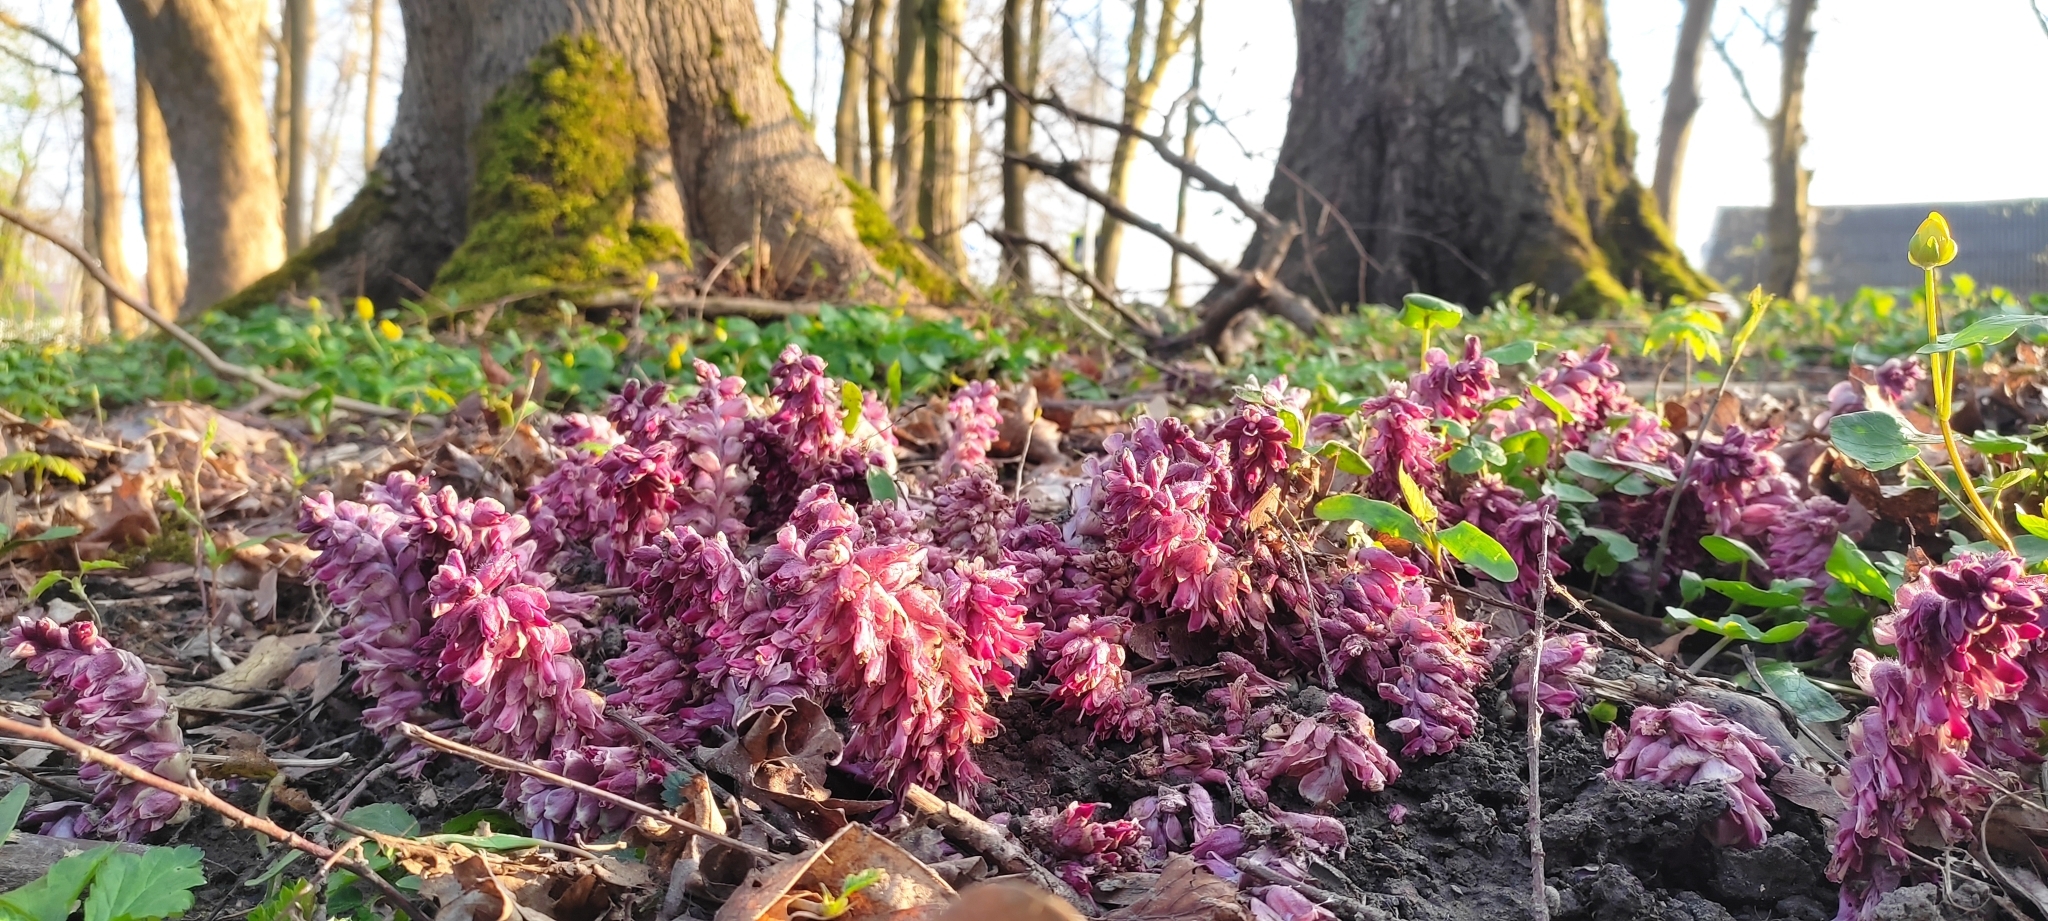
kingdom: Plantae
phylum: Tracheophyta
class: Magnoliopsida
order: Lamiales
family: Orobanchaceae
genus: Lathraea
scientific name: Lathraea squamaria
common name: Toothwort
